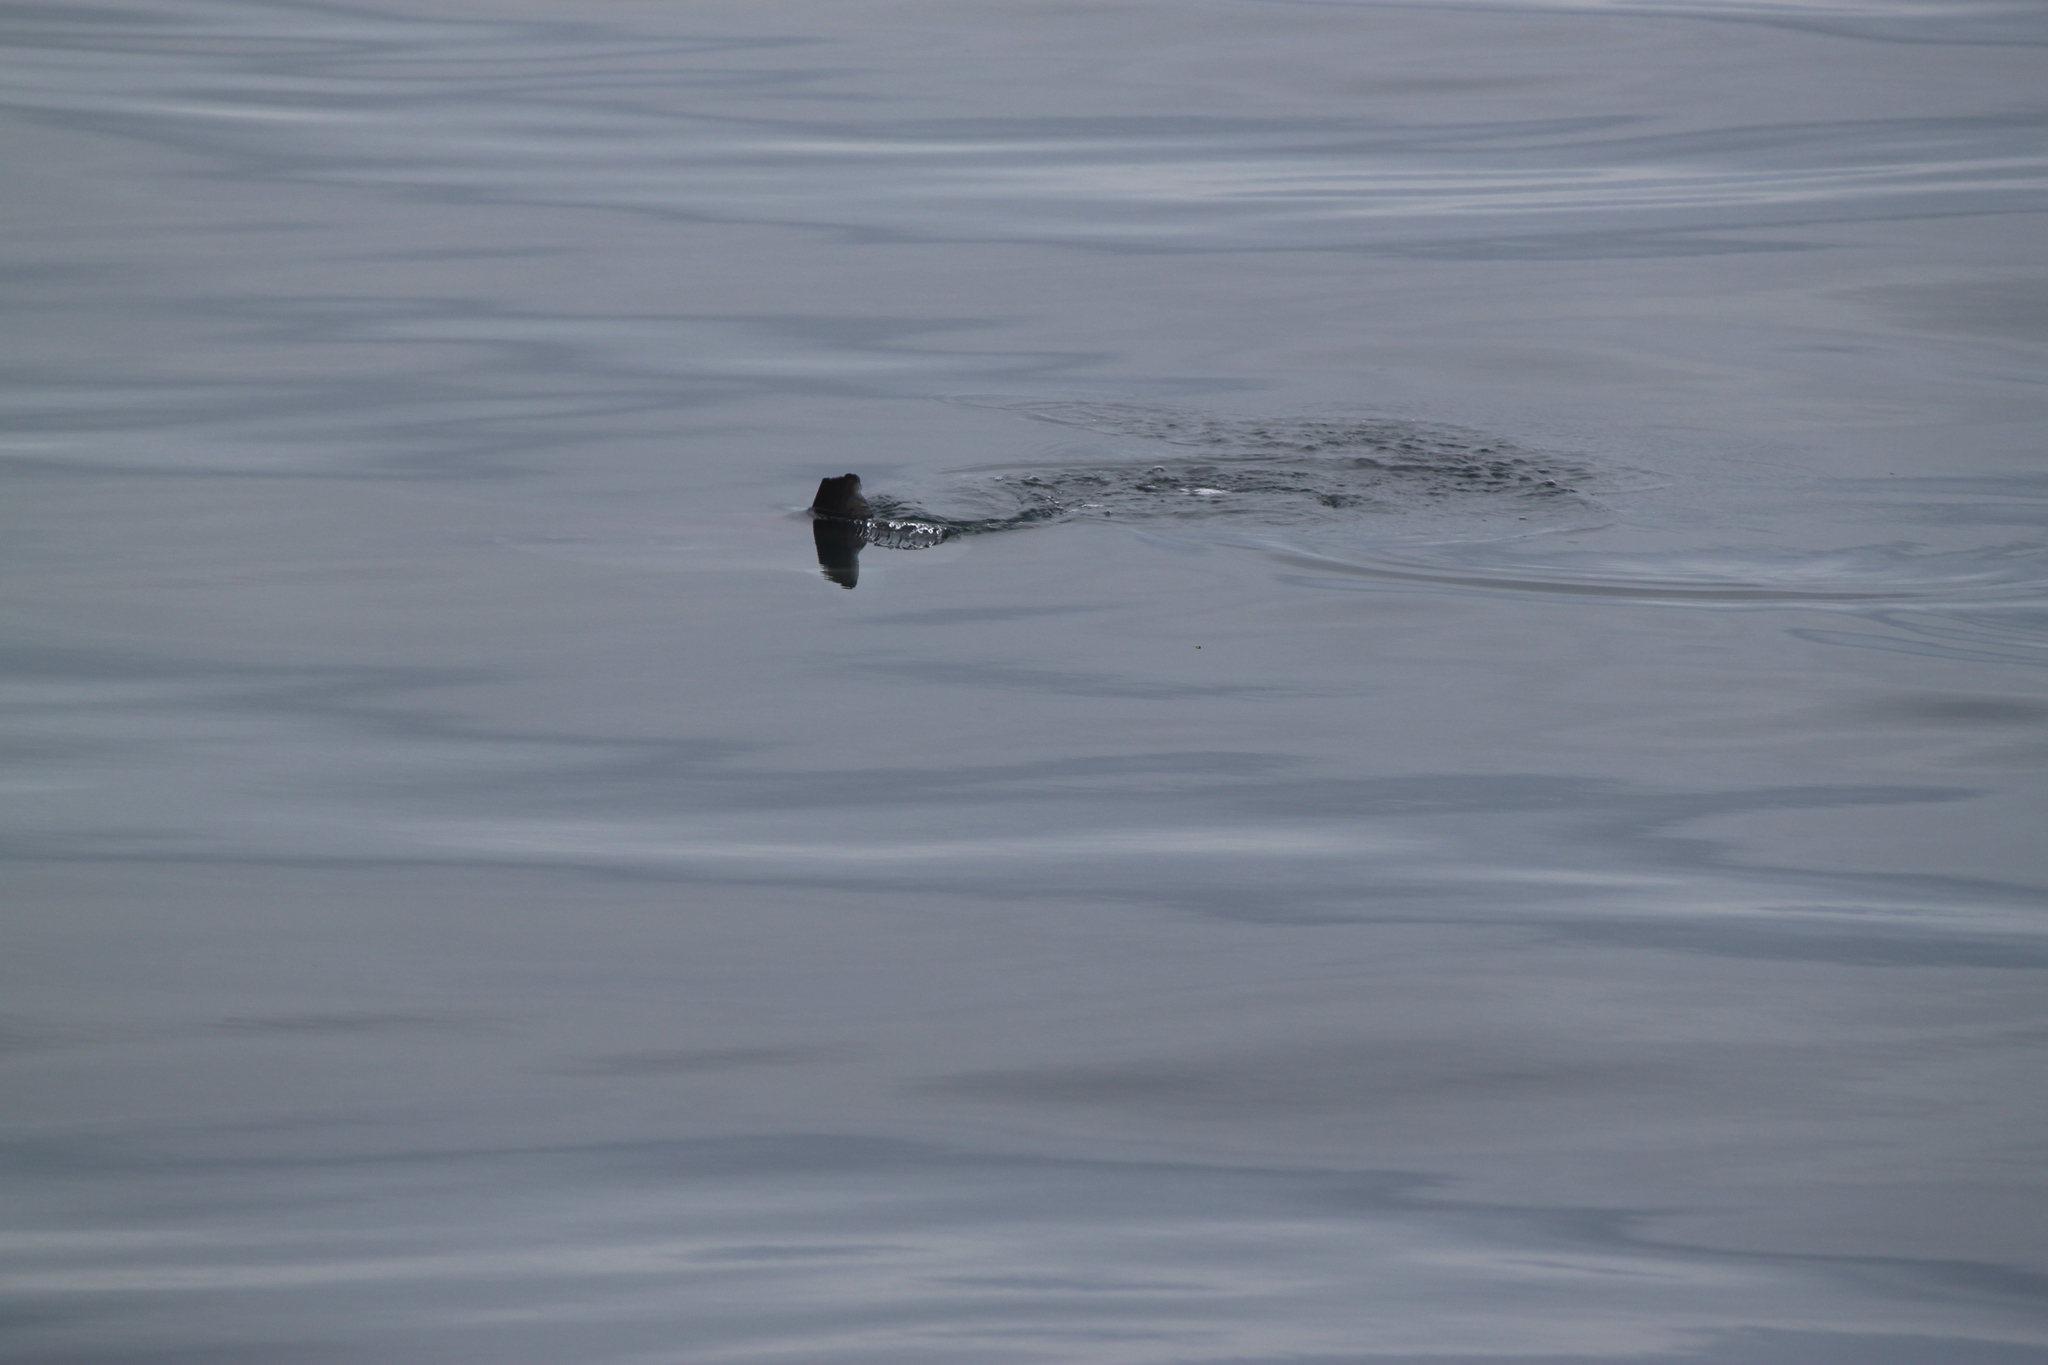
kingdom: Animalia
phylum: Chordata
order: Tetraodontiformes
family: Molidae
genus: Mola
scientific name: Mola mola
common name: Ocean sunfish
